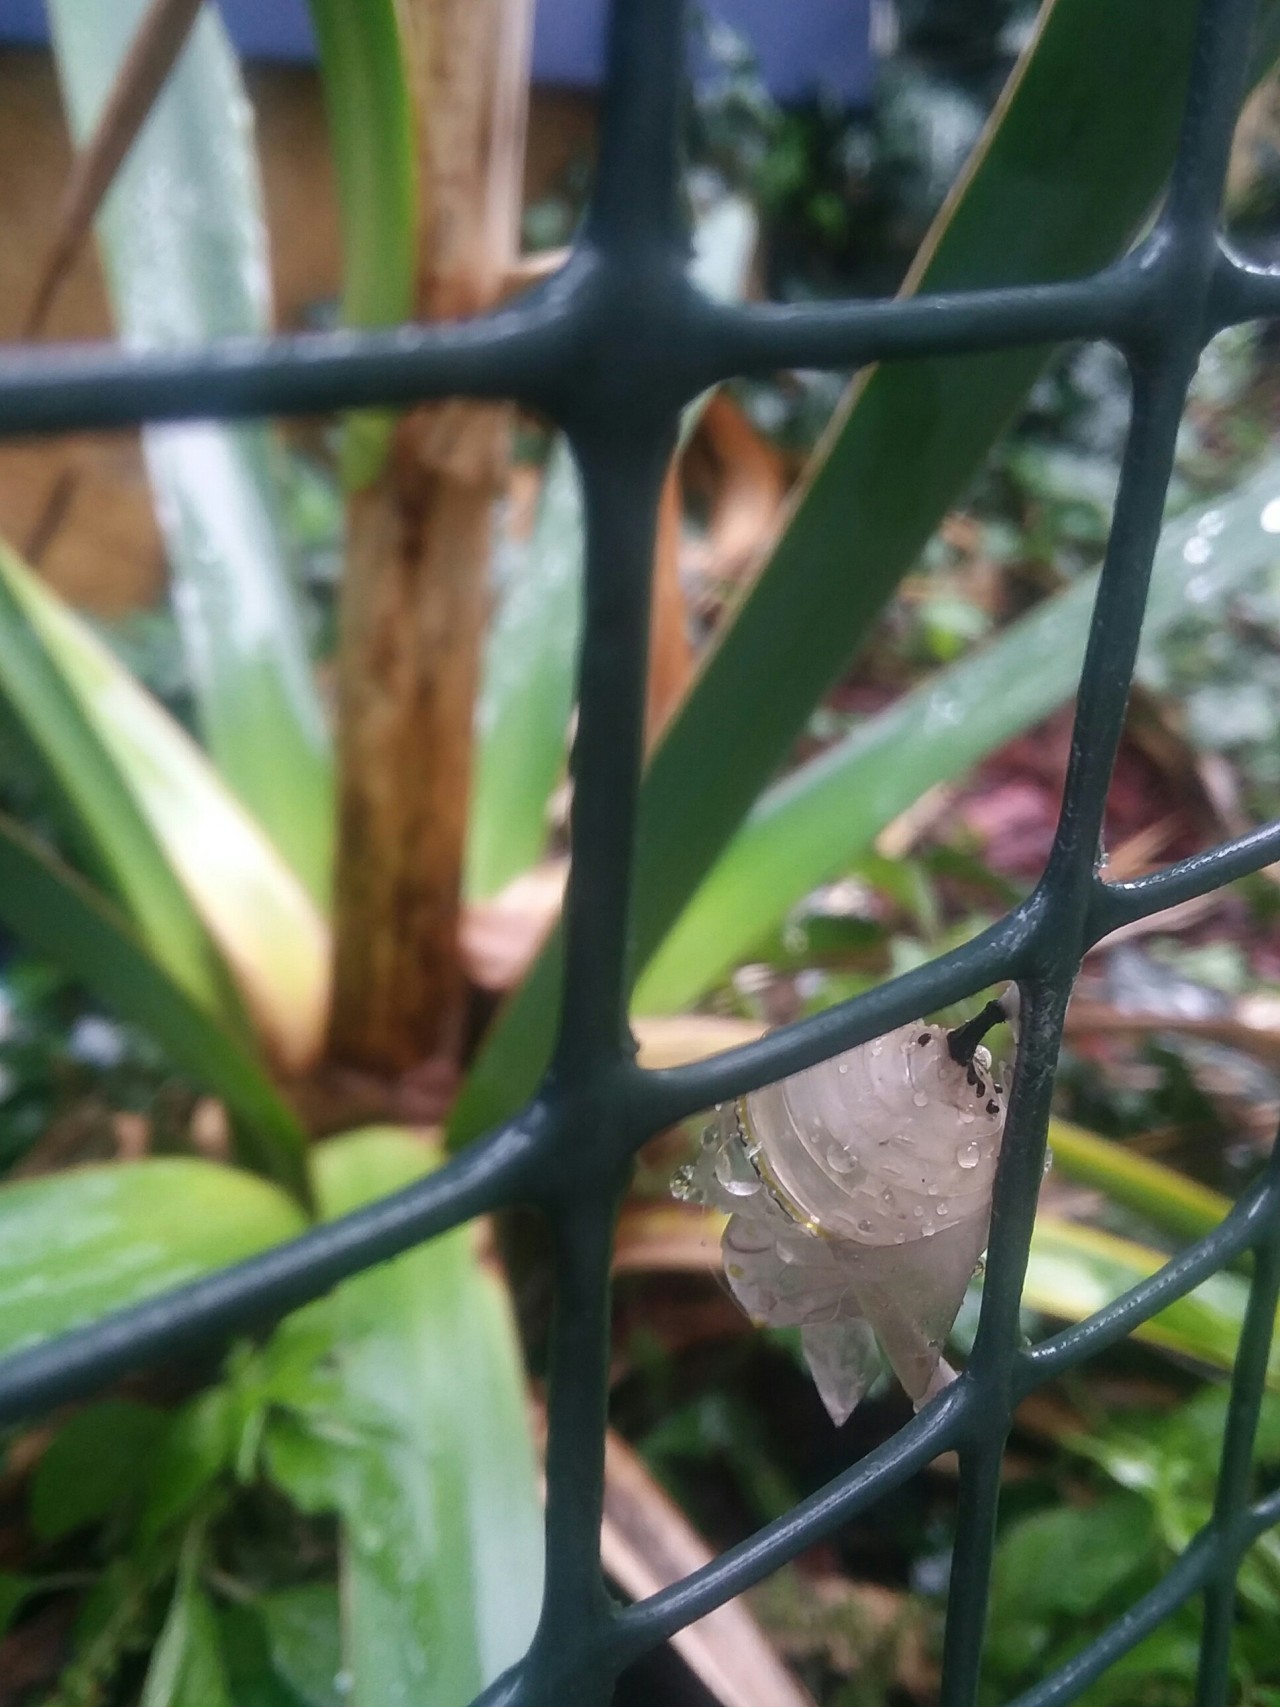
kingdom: Animalia
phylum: Arthropoda
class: Insecta
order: Lepidoptera
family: Nymphalidae
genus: Danaus
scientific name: Danaus plexippus
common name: Monarch
